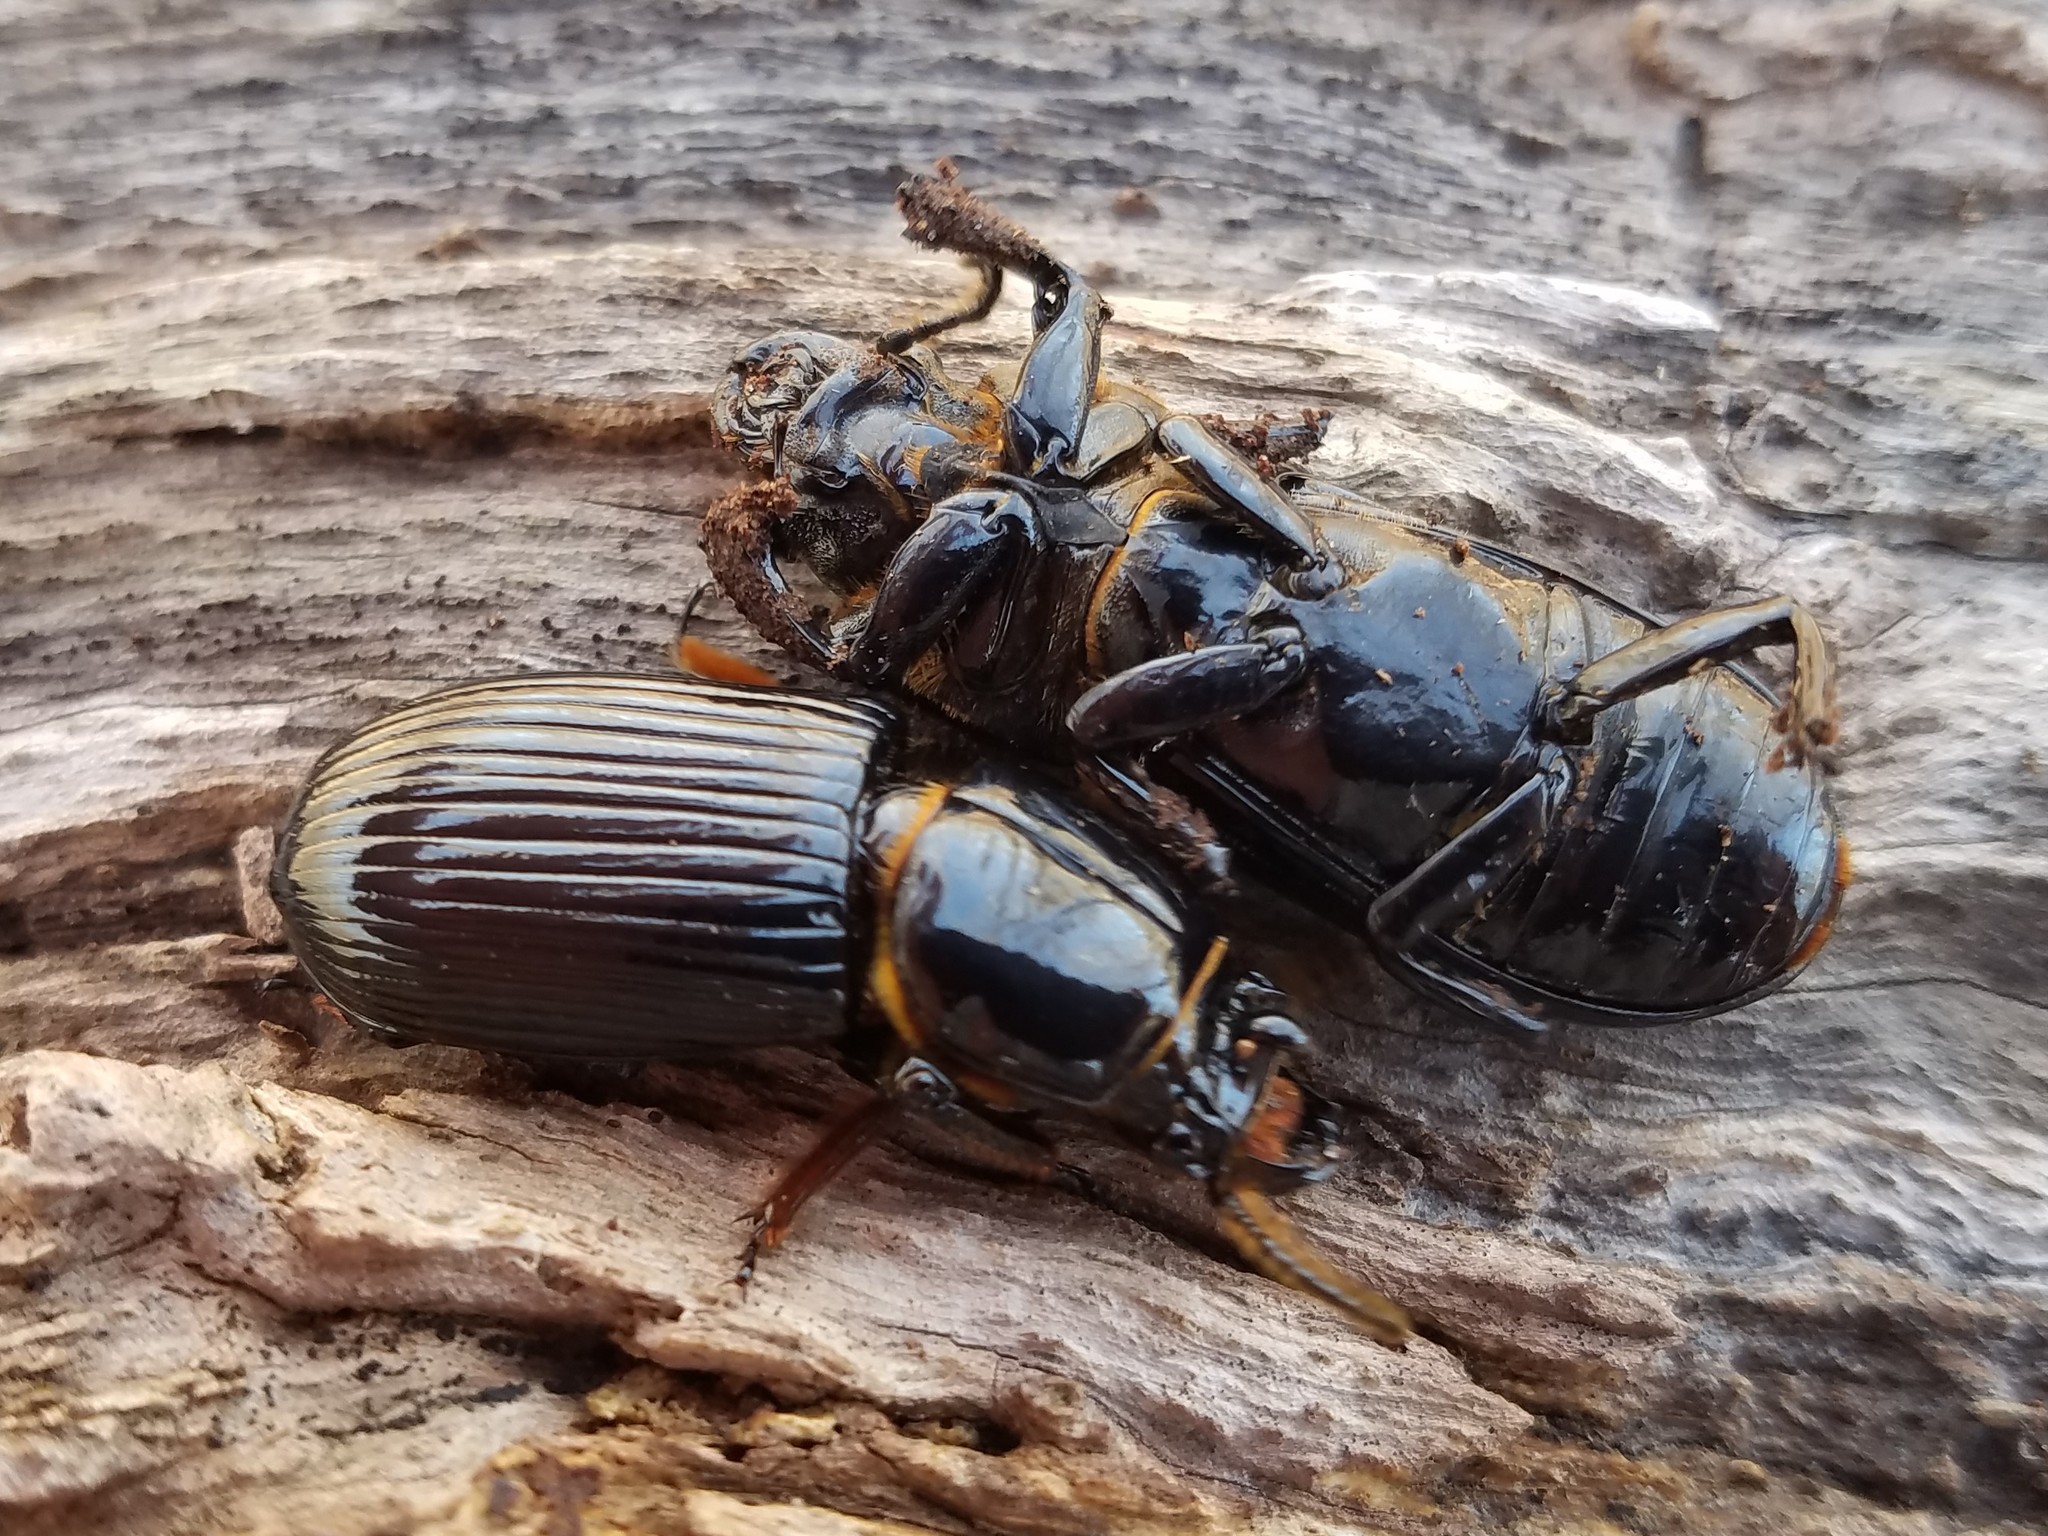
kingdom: Animalia
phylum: Arthropoda
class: Insecta
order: Coleoptera
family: Passalidae
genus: Odontotaenius
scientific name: Odontotaenius disjunctus
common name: Patent leather beetle
